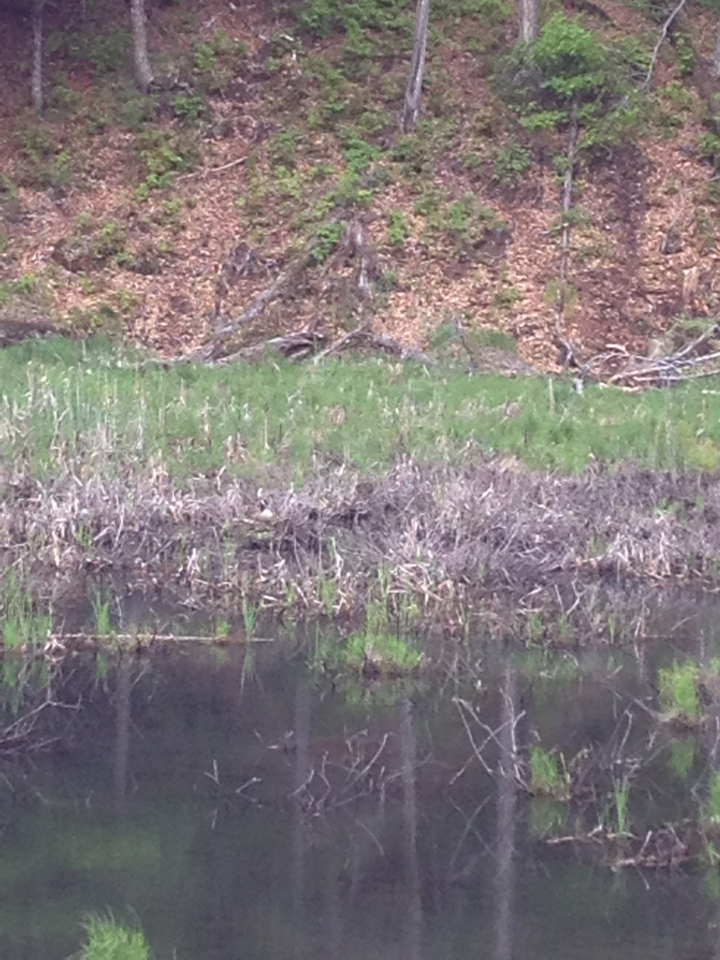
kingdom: Animalia
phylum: Chordata
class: Aves
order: Anseriformes
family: Anatidae
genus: Branta
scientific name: Branta canadensis
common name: Canada goose
